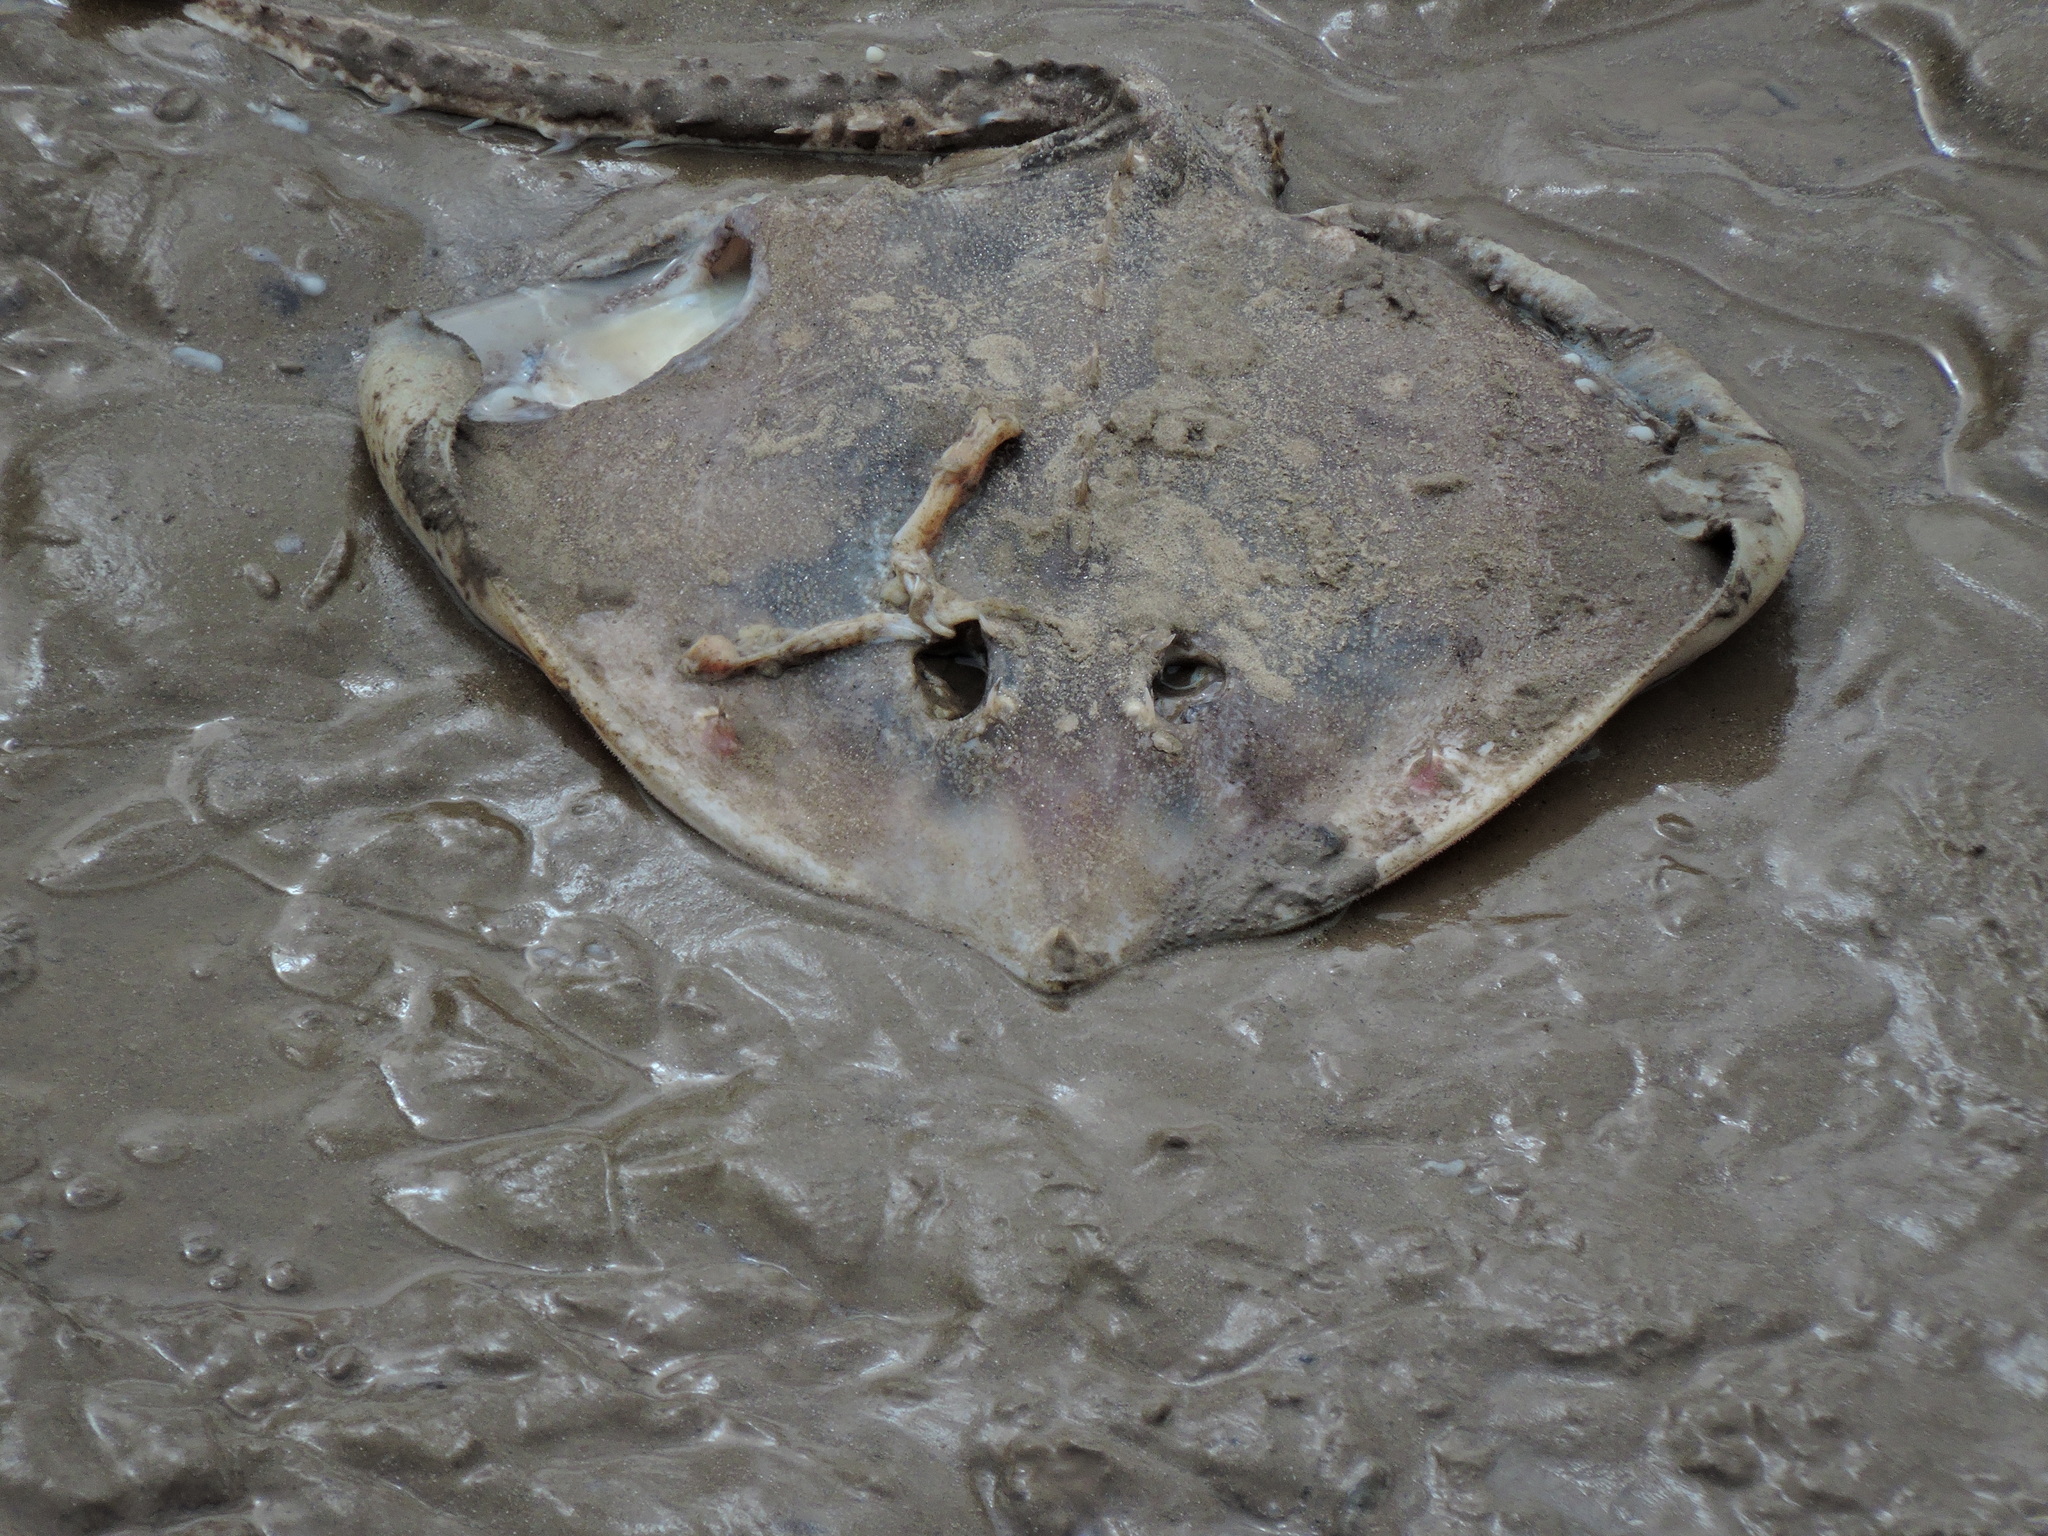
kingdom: Animalia
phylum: Chordata
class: Elasmobranchii
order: Rajiformes
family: Rajidae
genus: Raja
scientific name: Raja clavata
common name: Thornback ray
